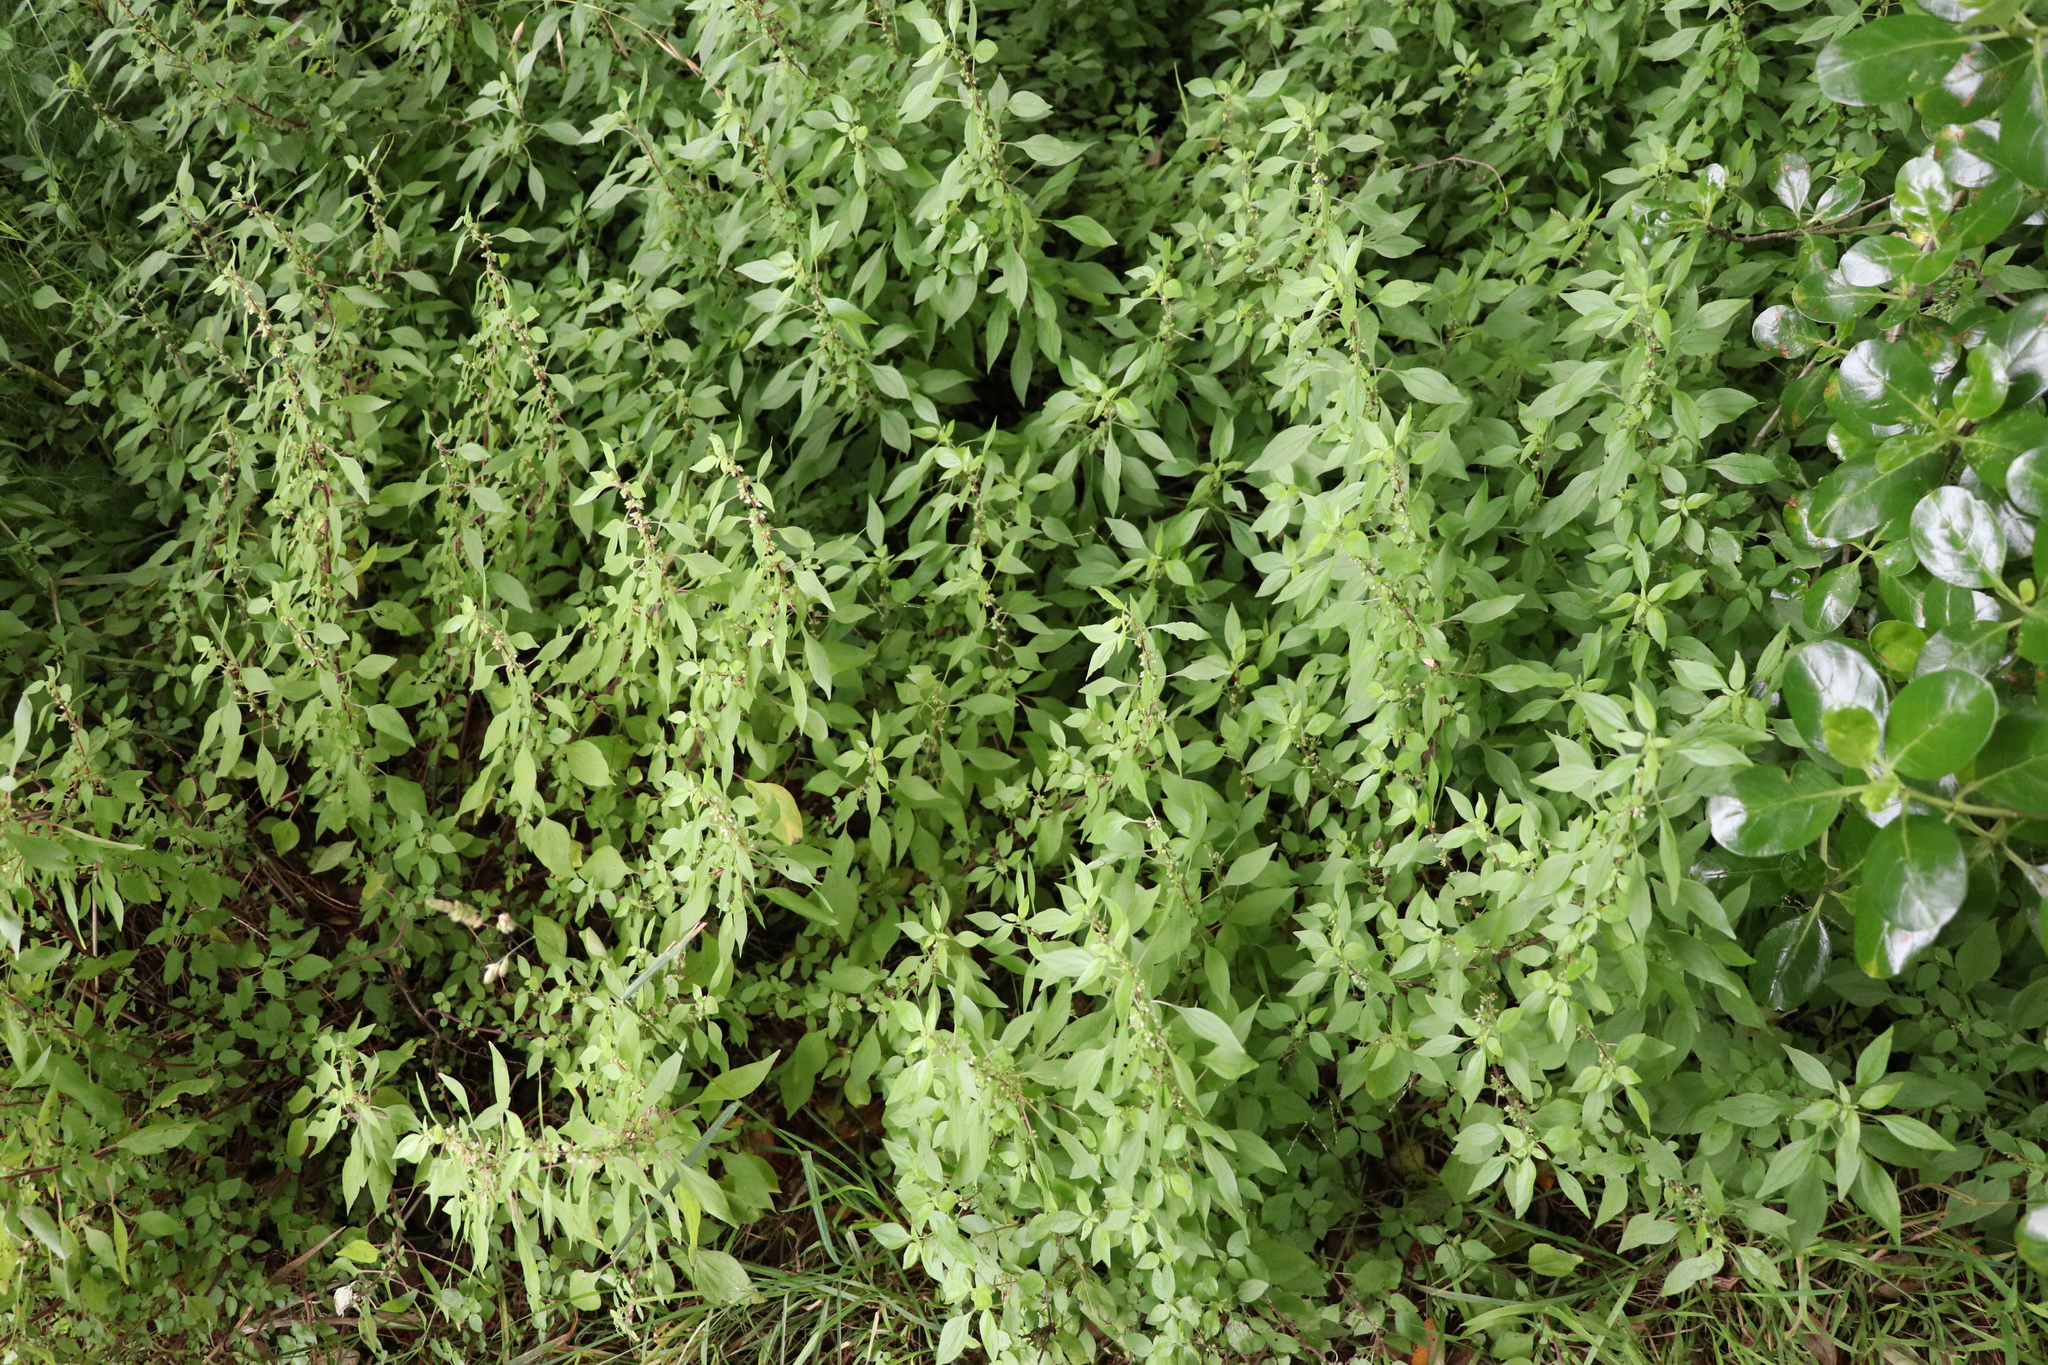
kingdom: Plantae
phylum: Tracheophyta
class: Magnoliopsida
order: Rosales
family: Urticaceae
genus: Parietaria
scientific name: Parietaria judaica
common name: Pellitory-of-the-wall
